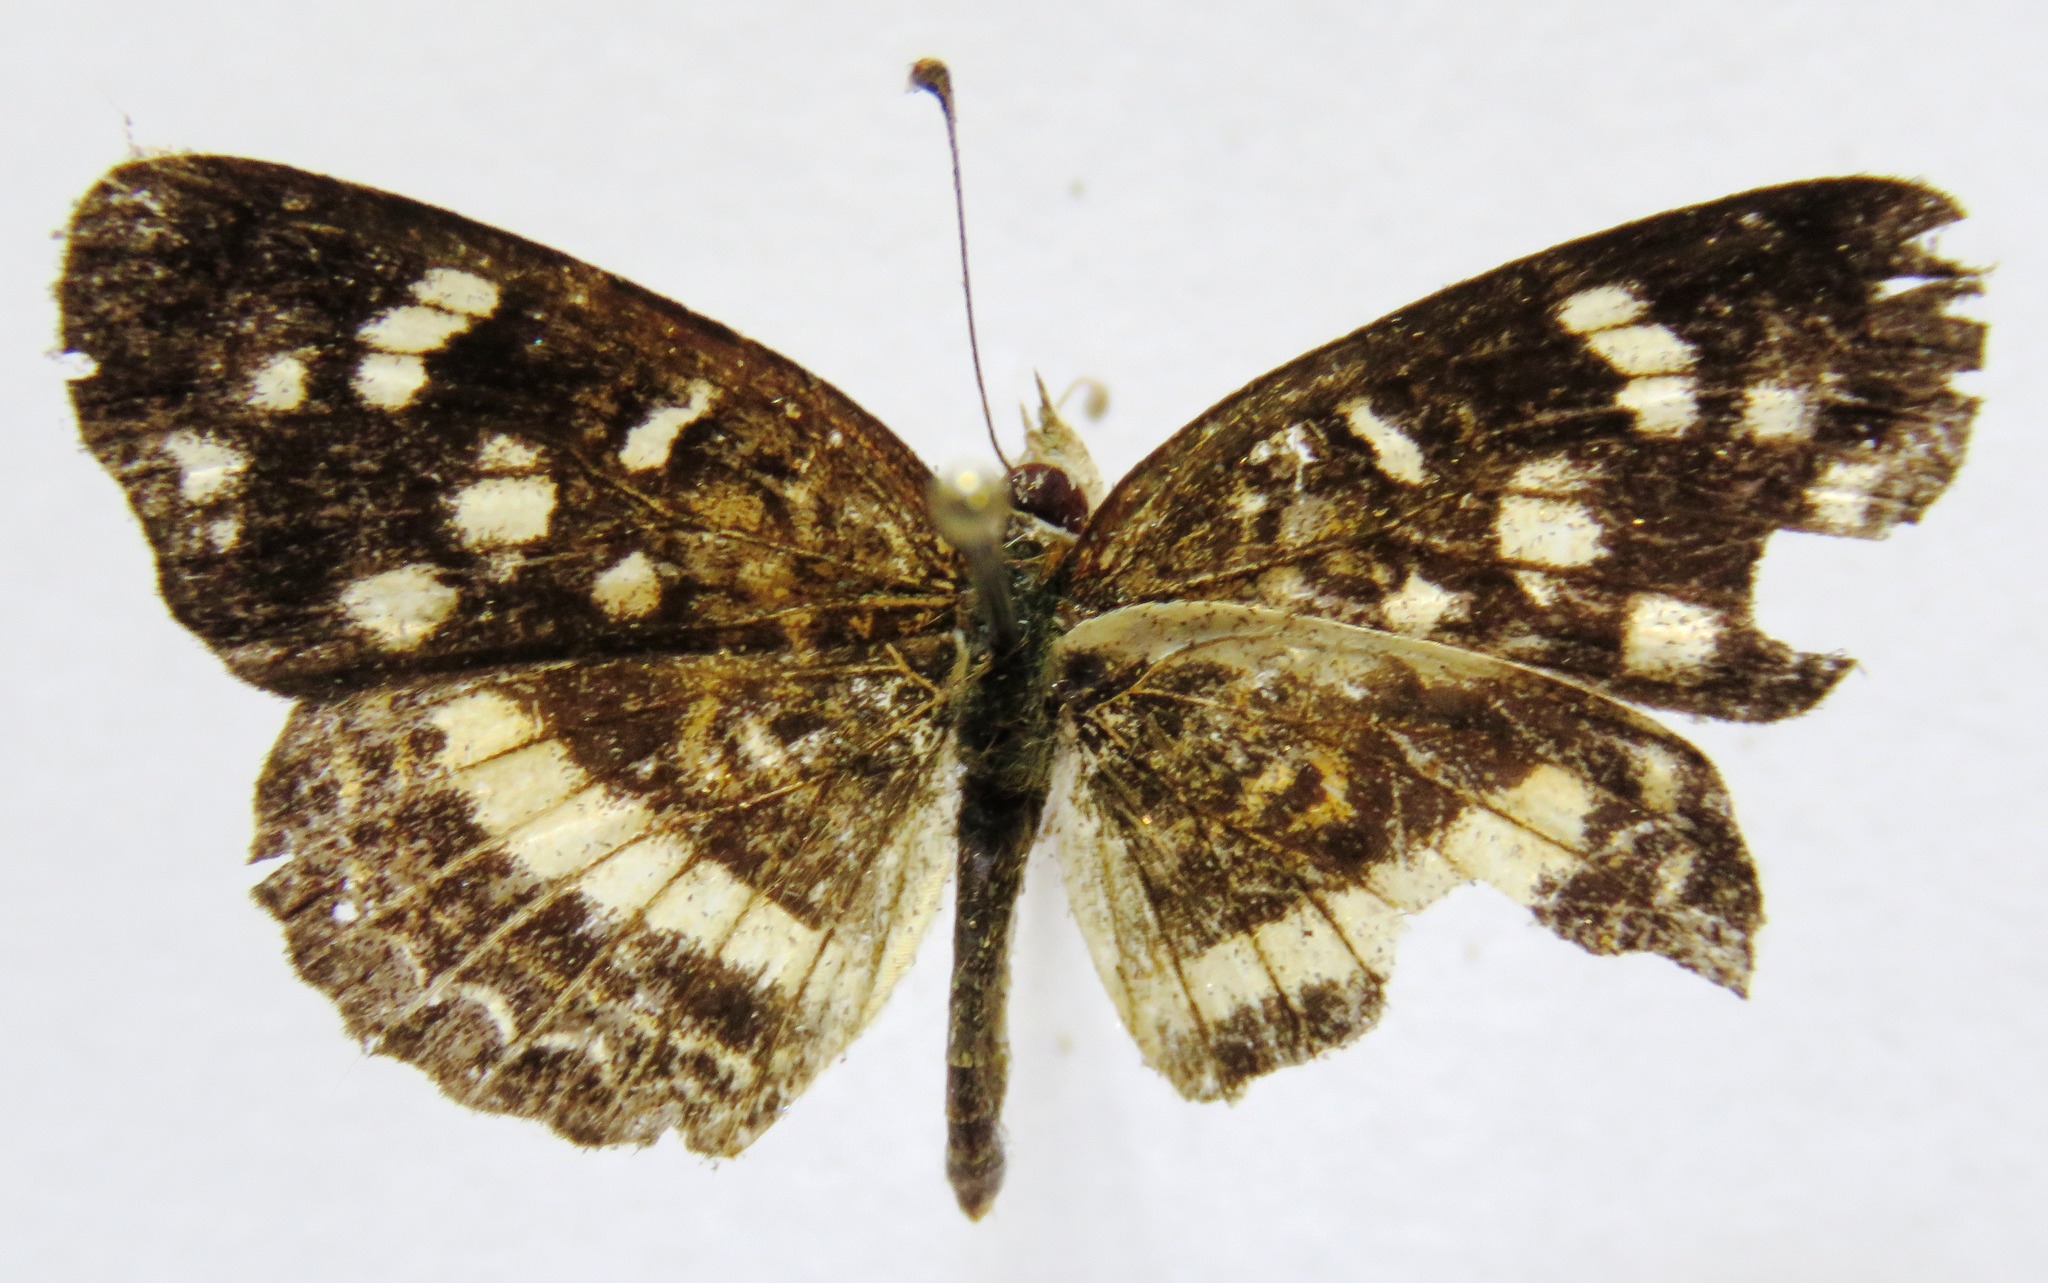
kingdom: Animalia
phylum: Arthropoda
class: Insecta
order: Lepidoptera
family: Nymphalidae
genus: Anthanassa
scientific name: Anthanassa tulcis
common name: Pale-banded crescent
